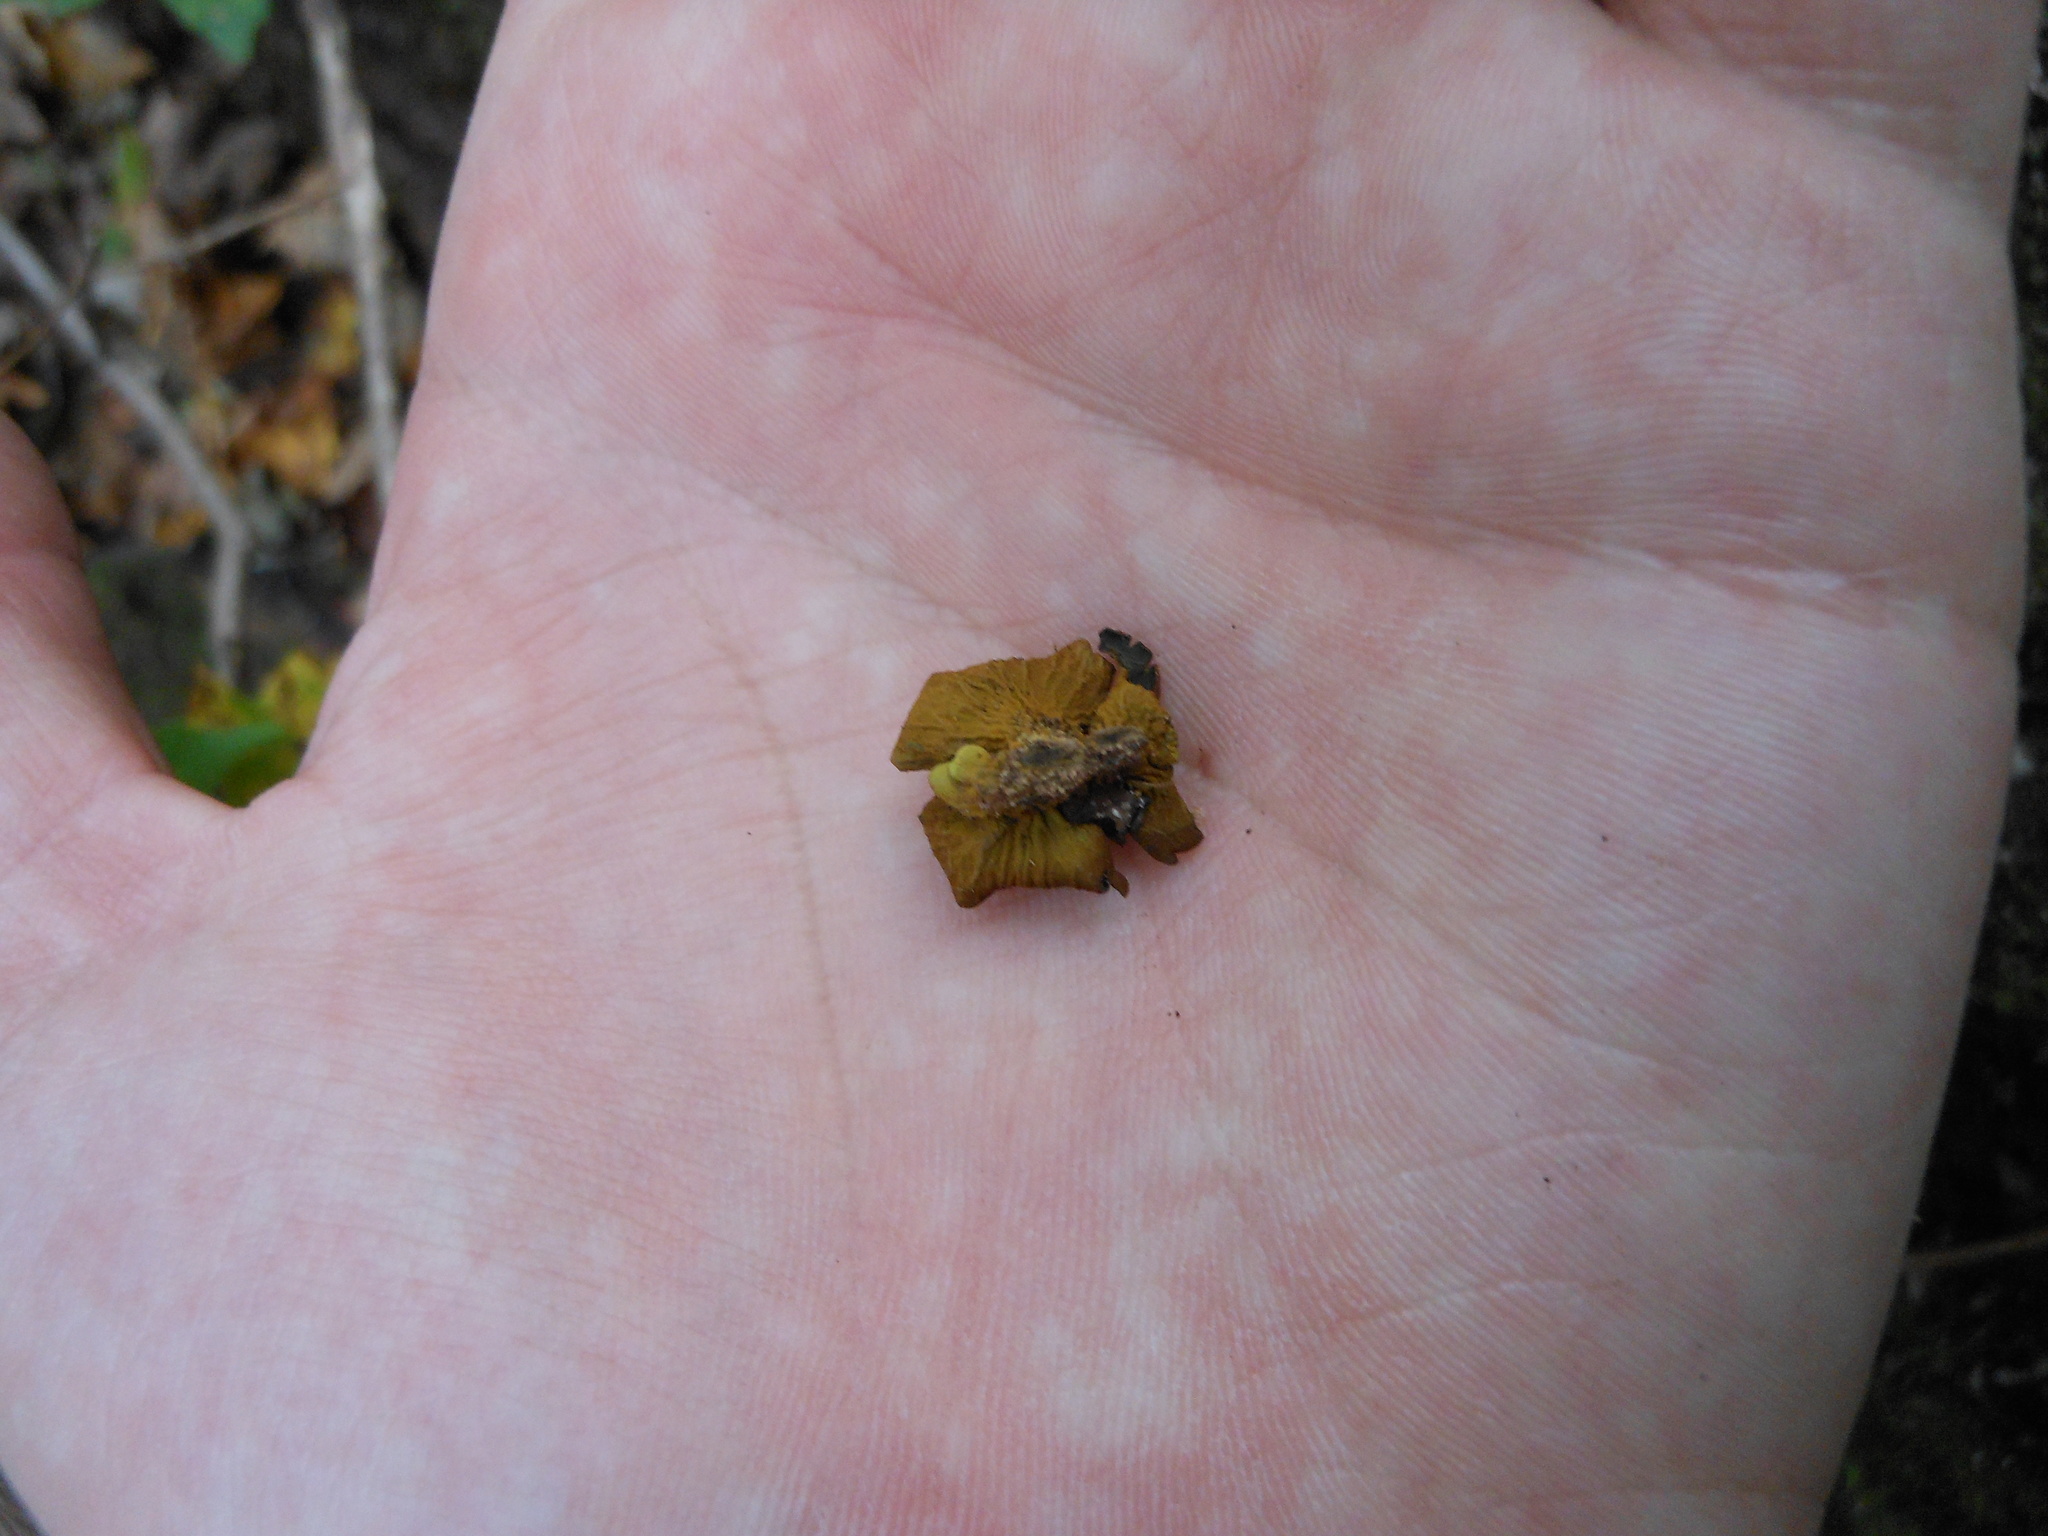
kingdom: Fungi
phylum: Ascomycota
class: Leotiomycetes
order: Phacidiales
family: Phacidiaceae
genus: Bulgaria
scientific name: Bulgaria inquinans
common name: Black bulgar
